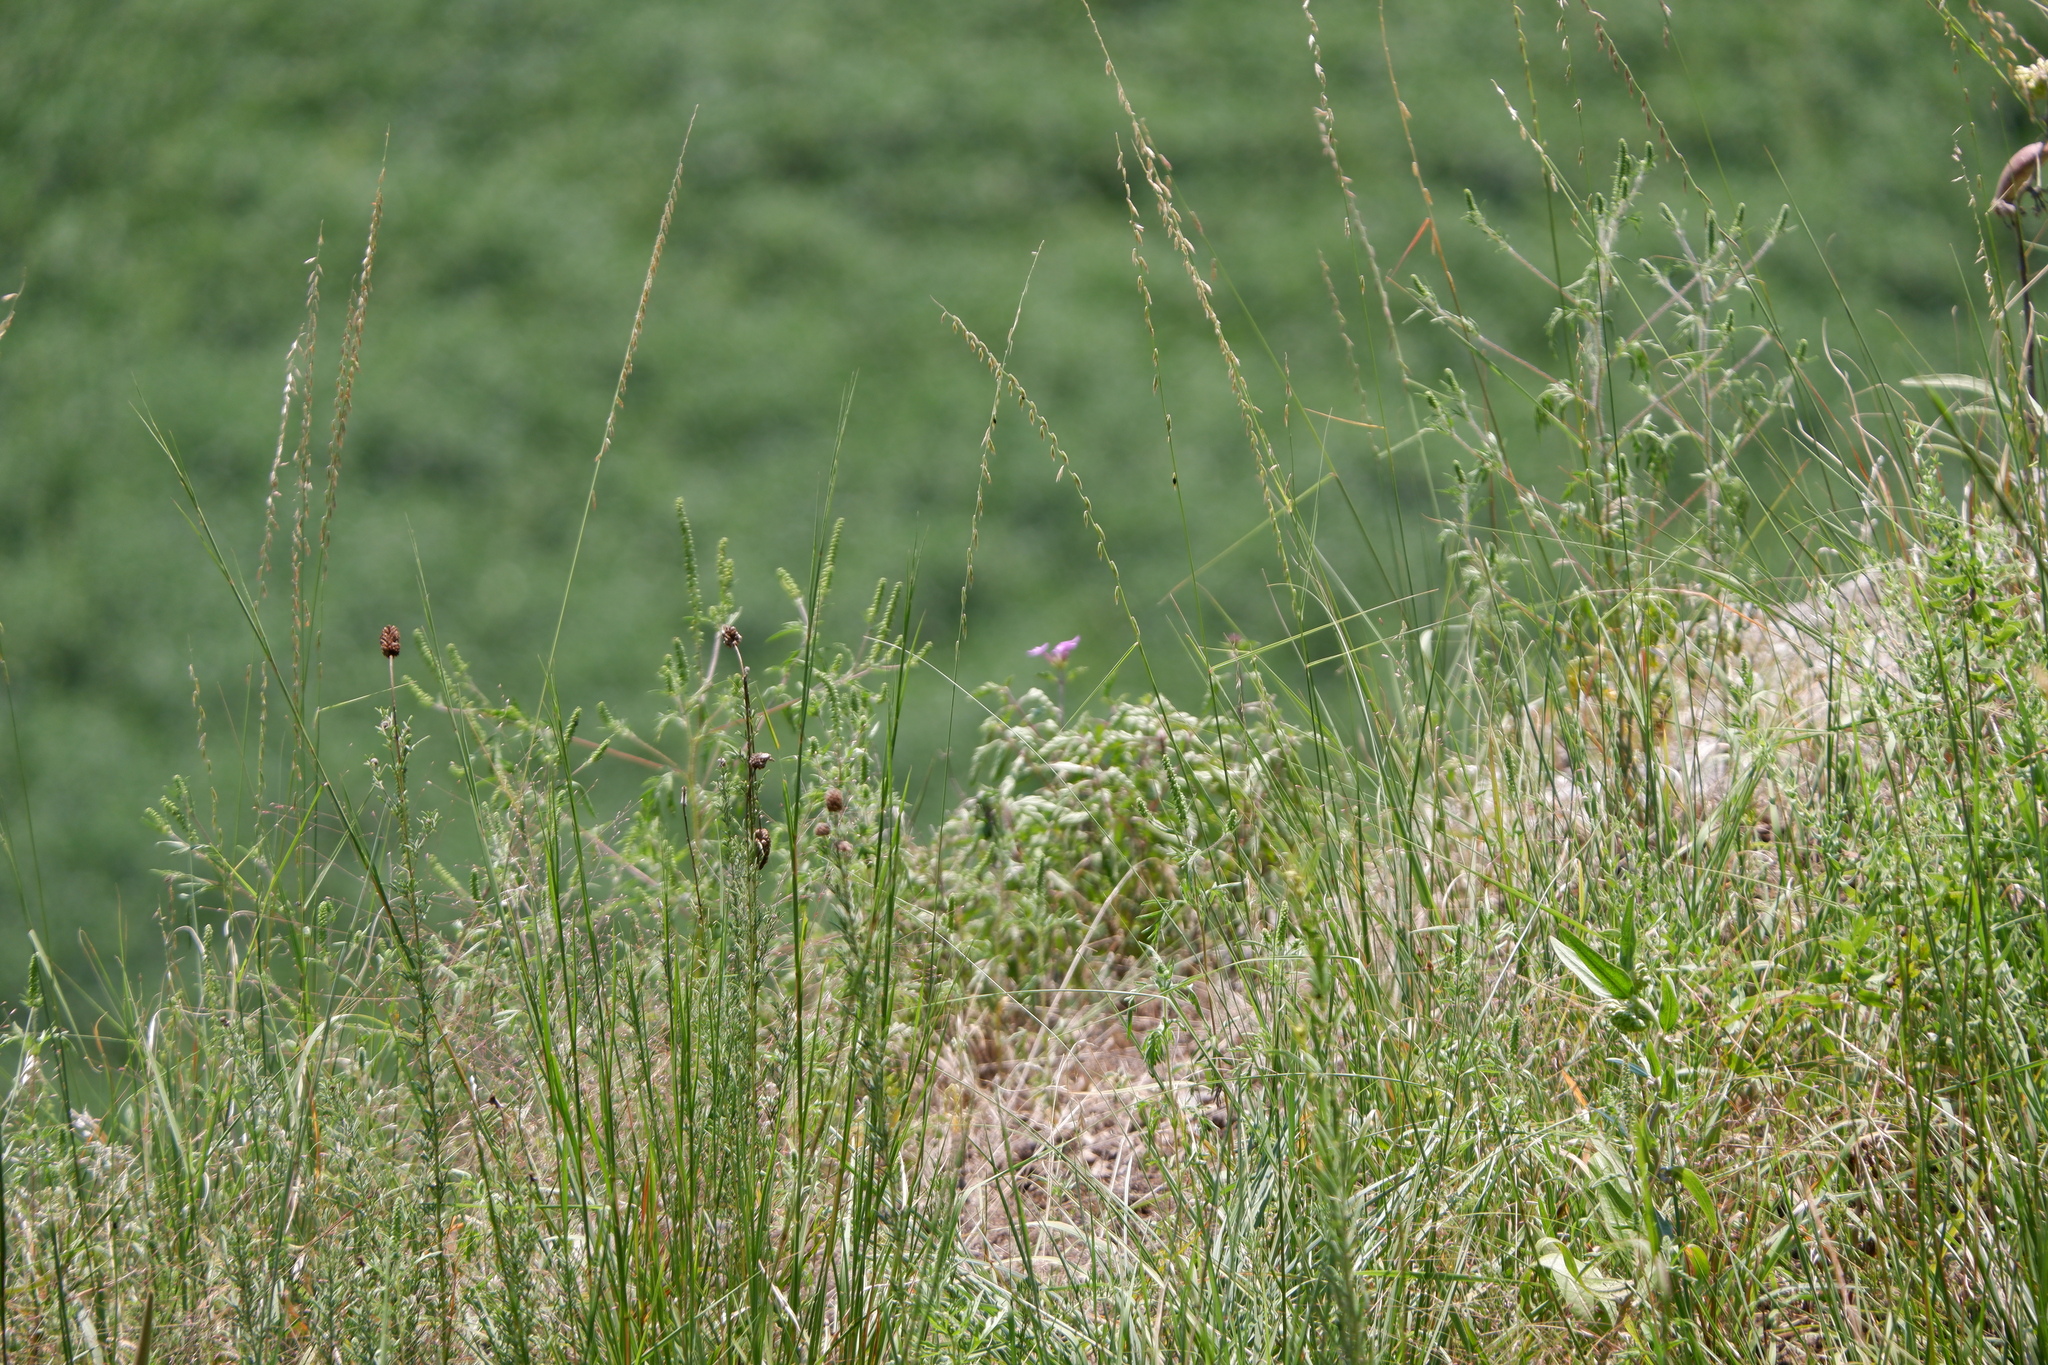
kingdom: Plantae
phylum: Tracheophyta
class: Liliopsida
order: Poales
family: Poaceae
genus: Bouteloua
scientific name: Bouteloua curtipendula
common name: Side-oats grama
